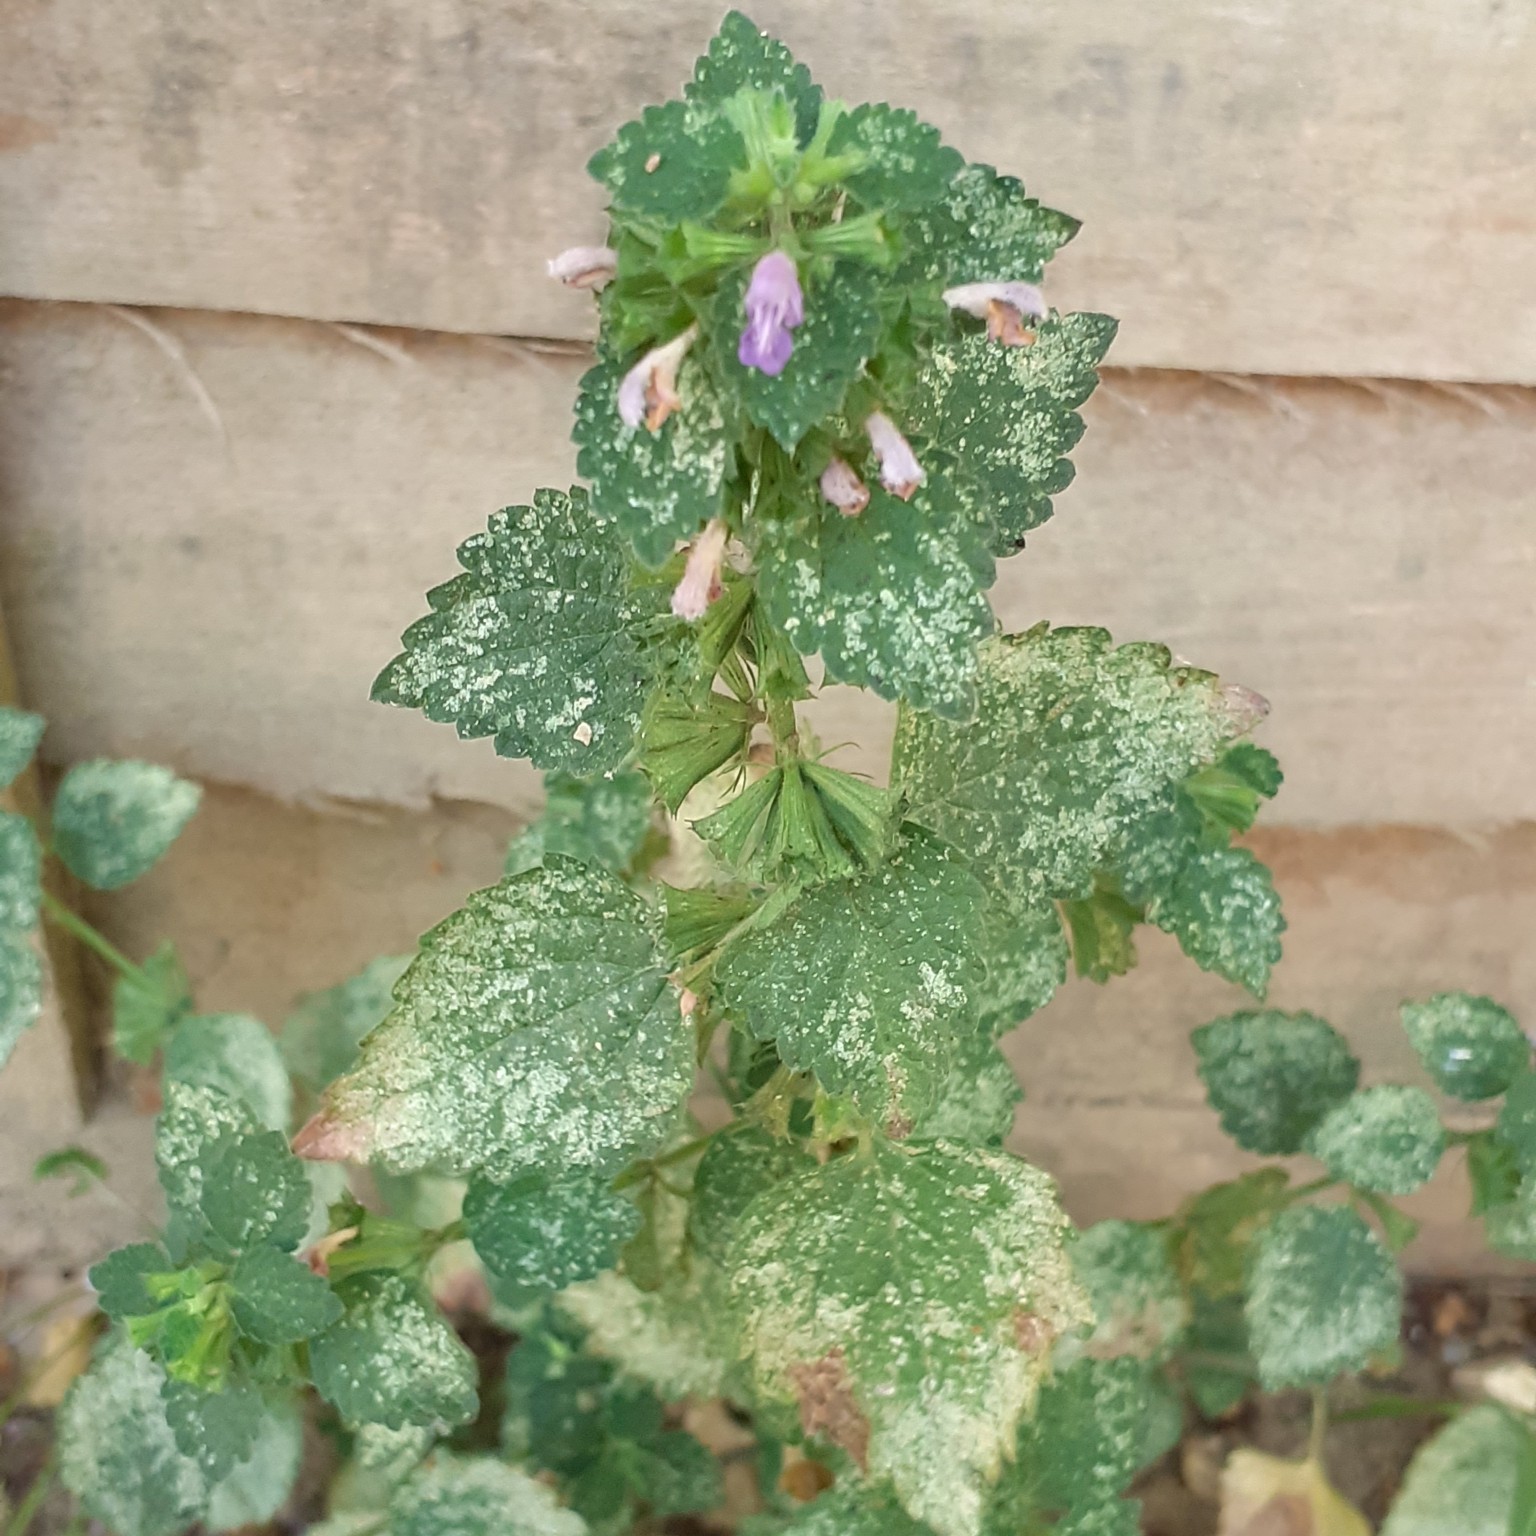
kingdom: Plantae
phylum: Tracheophyta
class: Magnoliopsida
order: Lamiales
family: Lamiaceae
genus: Ballota
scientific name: Ballota nigra
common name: Black horehound
